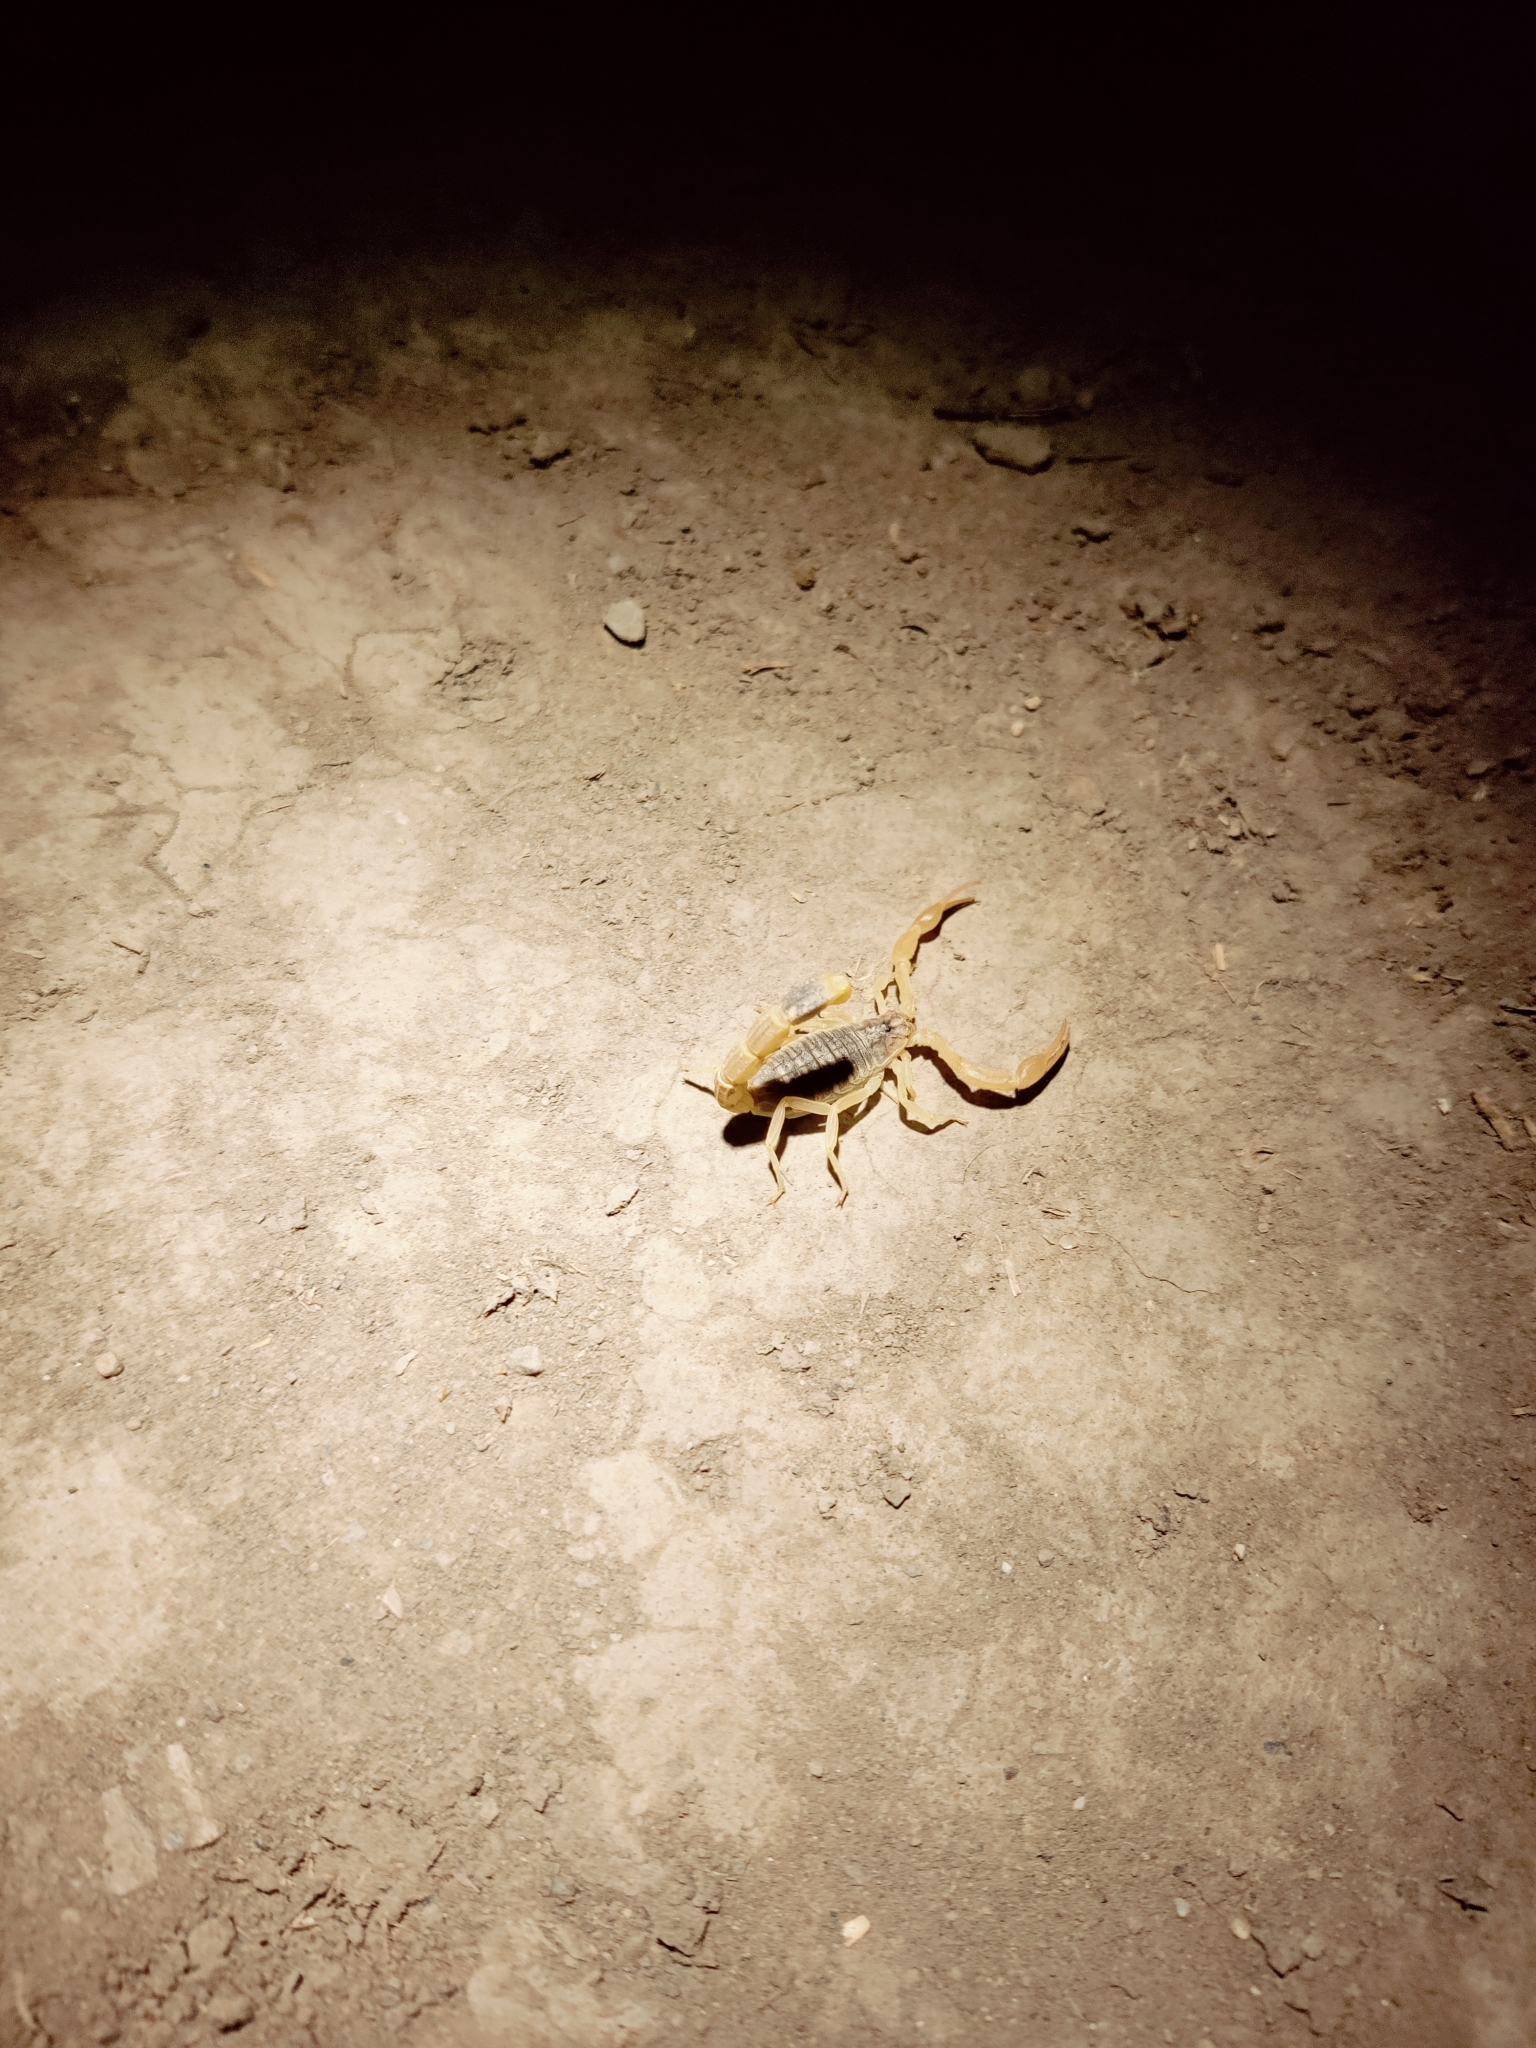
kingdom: Animalia
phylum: Arthropoda
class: Arachnida
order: Scorpiones
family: Buthidae
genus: Olivierus
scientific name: Olivierus caucasicus
